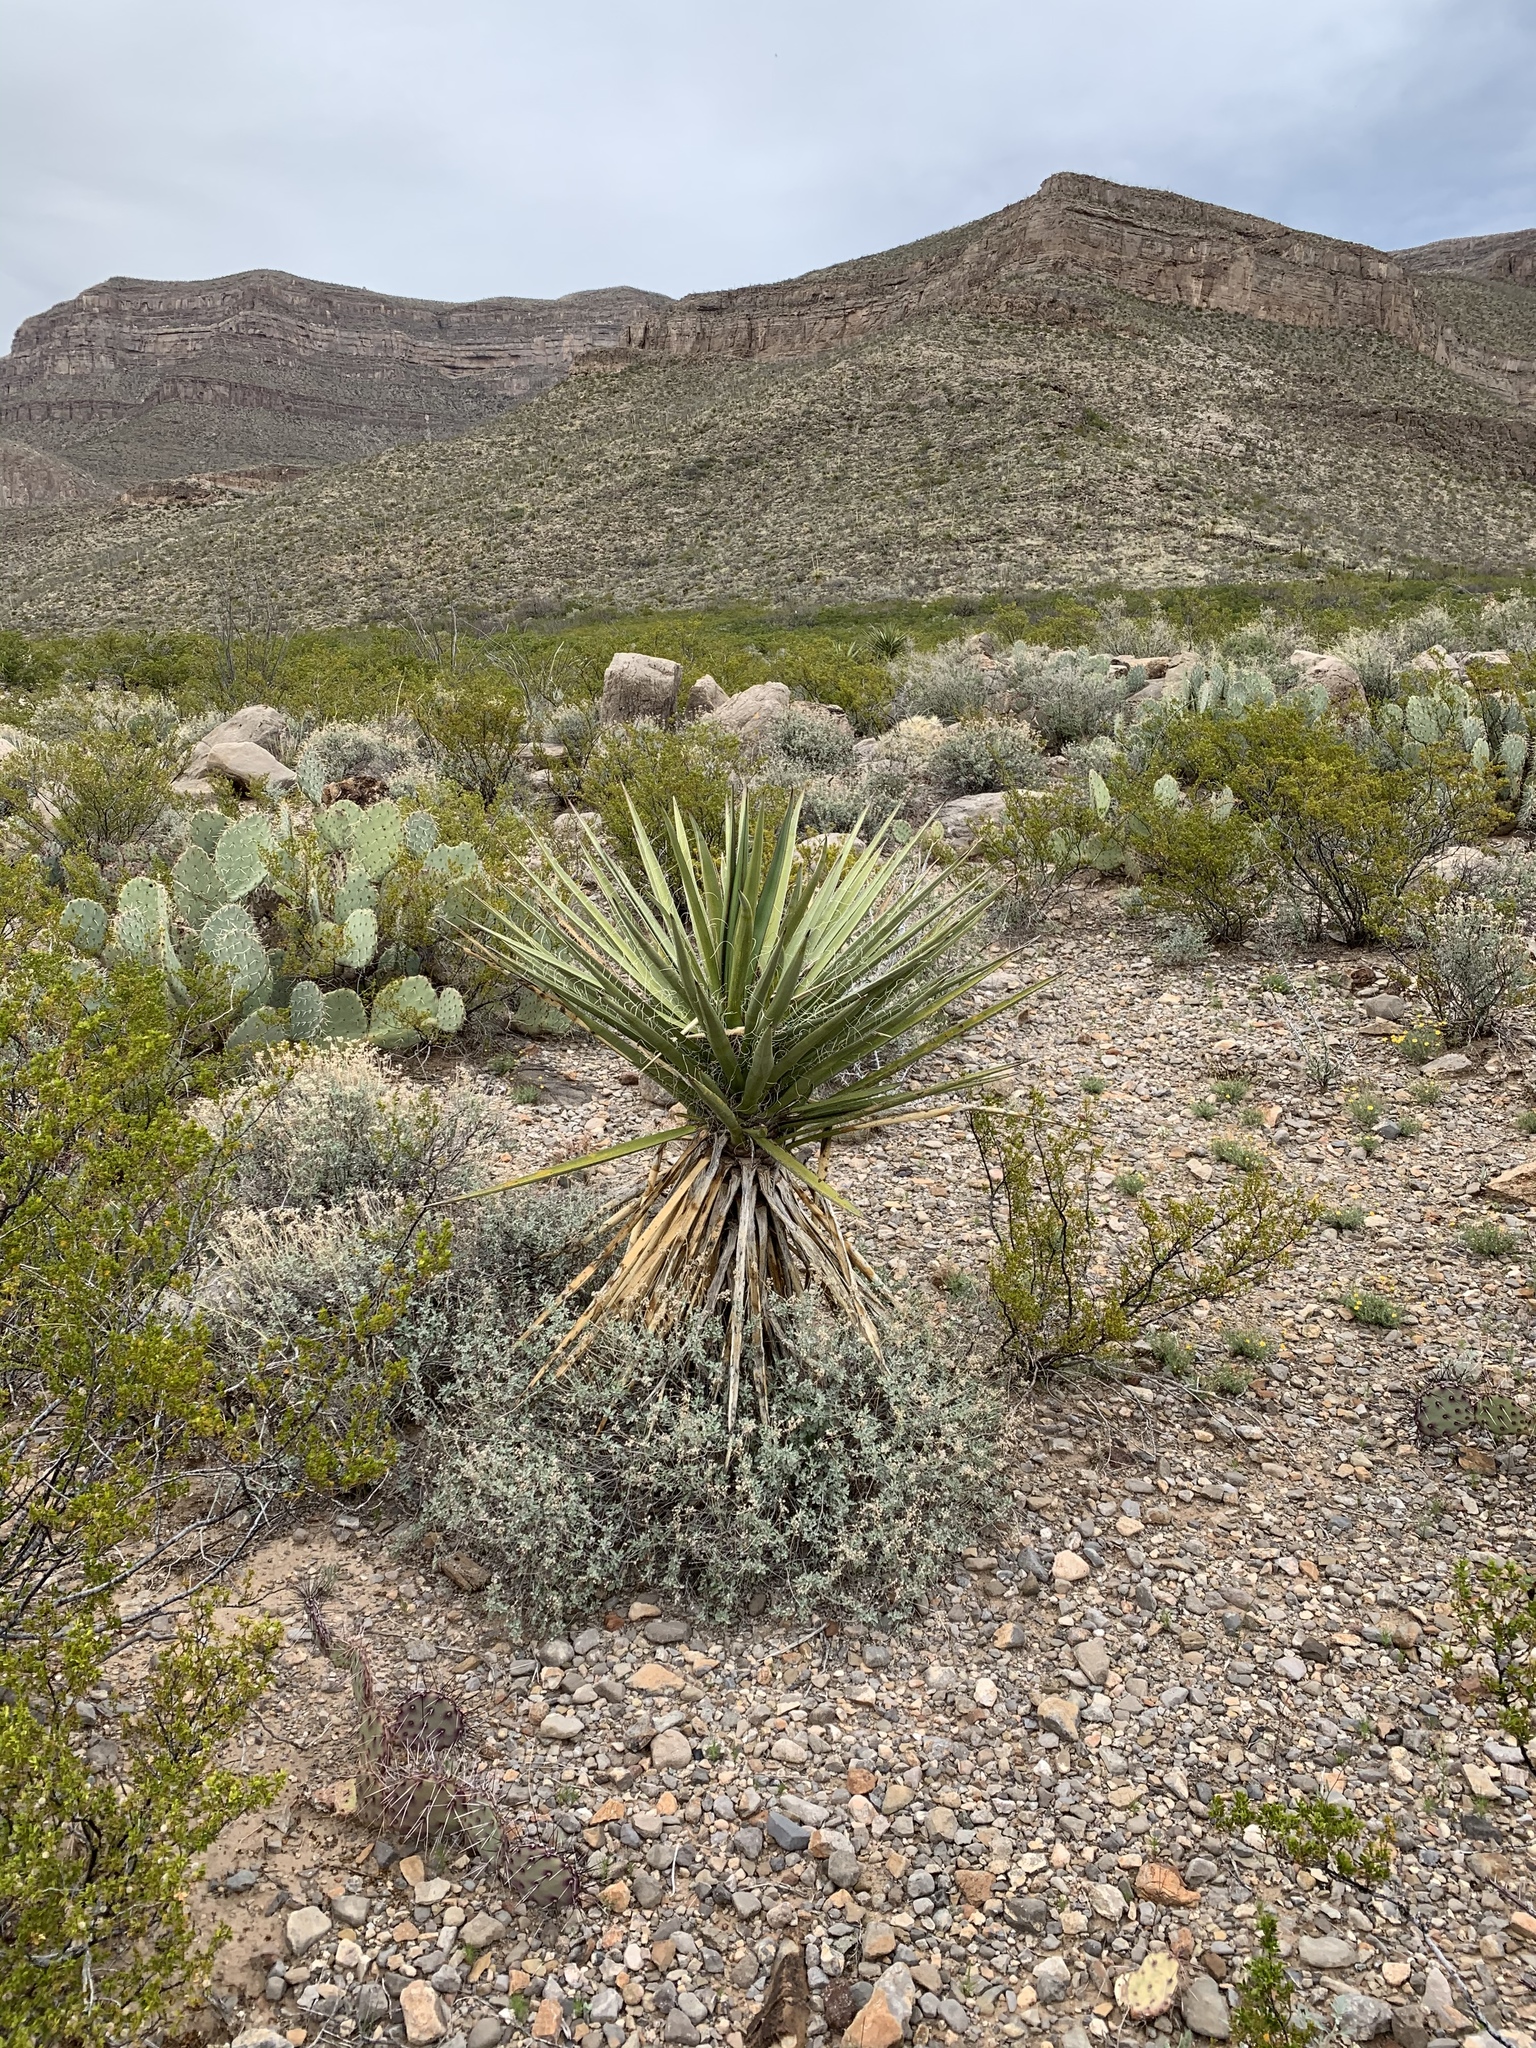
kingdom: Plantae
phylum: Tracheophyta
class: Liliopsida
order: Asparagales
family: Asparagaceae
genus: Yucca
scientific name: Yucca treculiana
